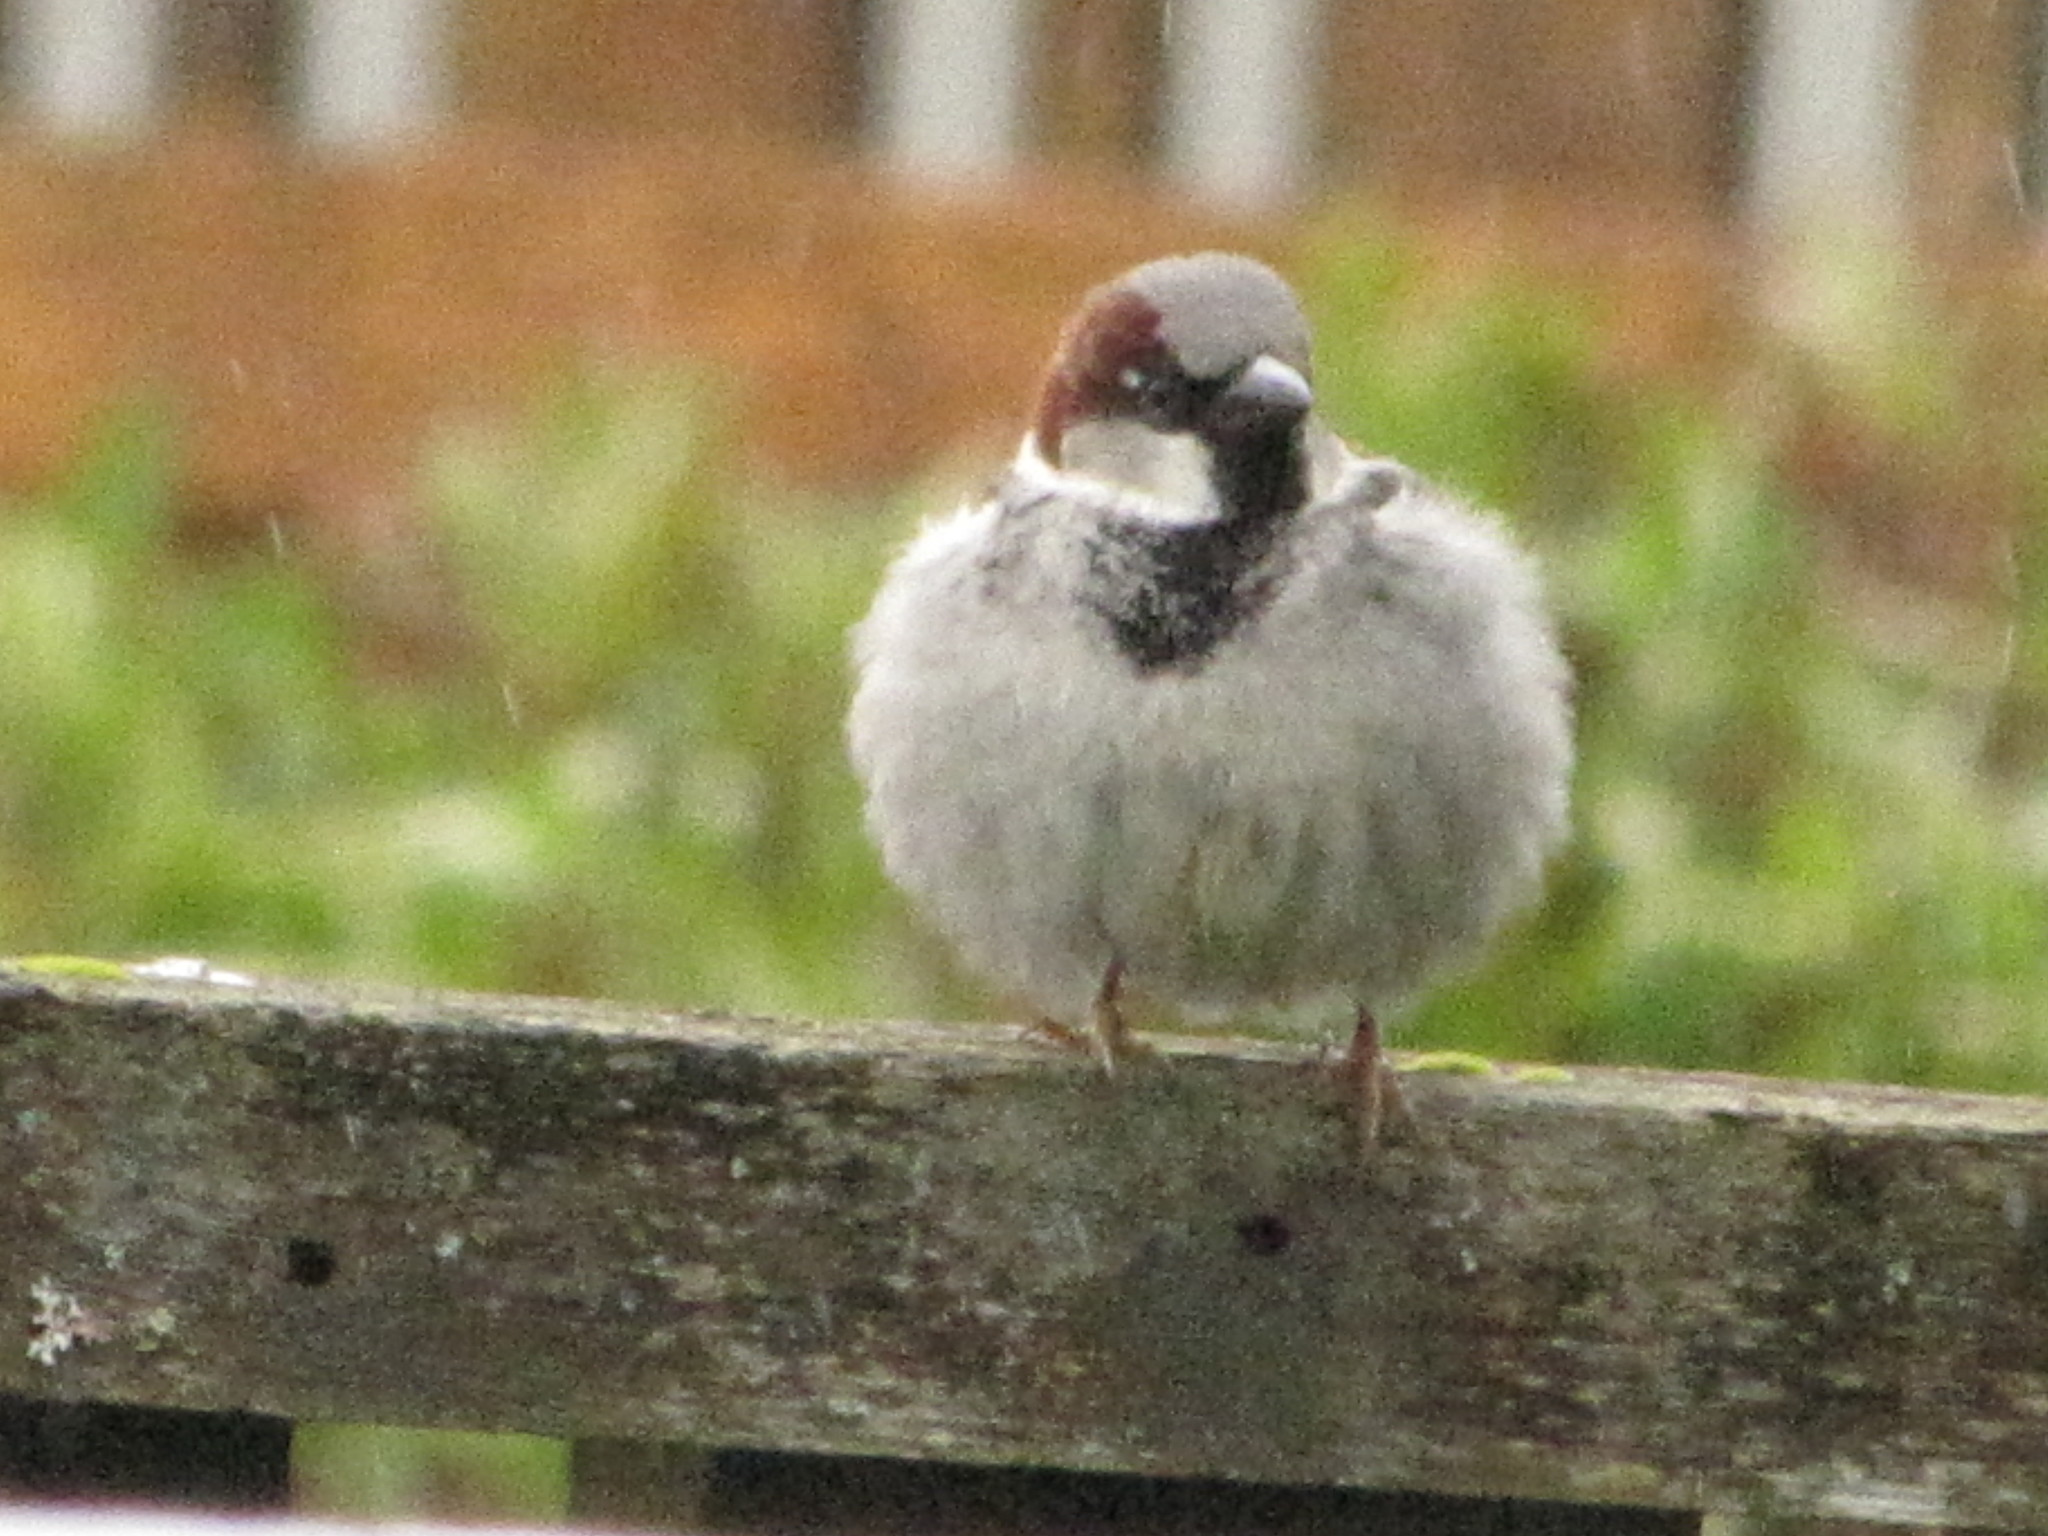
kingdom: Animalia
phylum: Chordata
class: Aves
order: Passeriformes
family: Passeridae
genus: Passer
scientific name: Passer domesticus
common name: House sparrow
